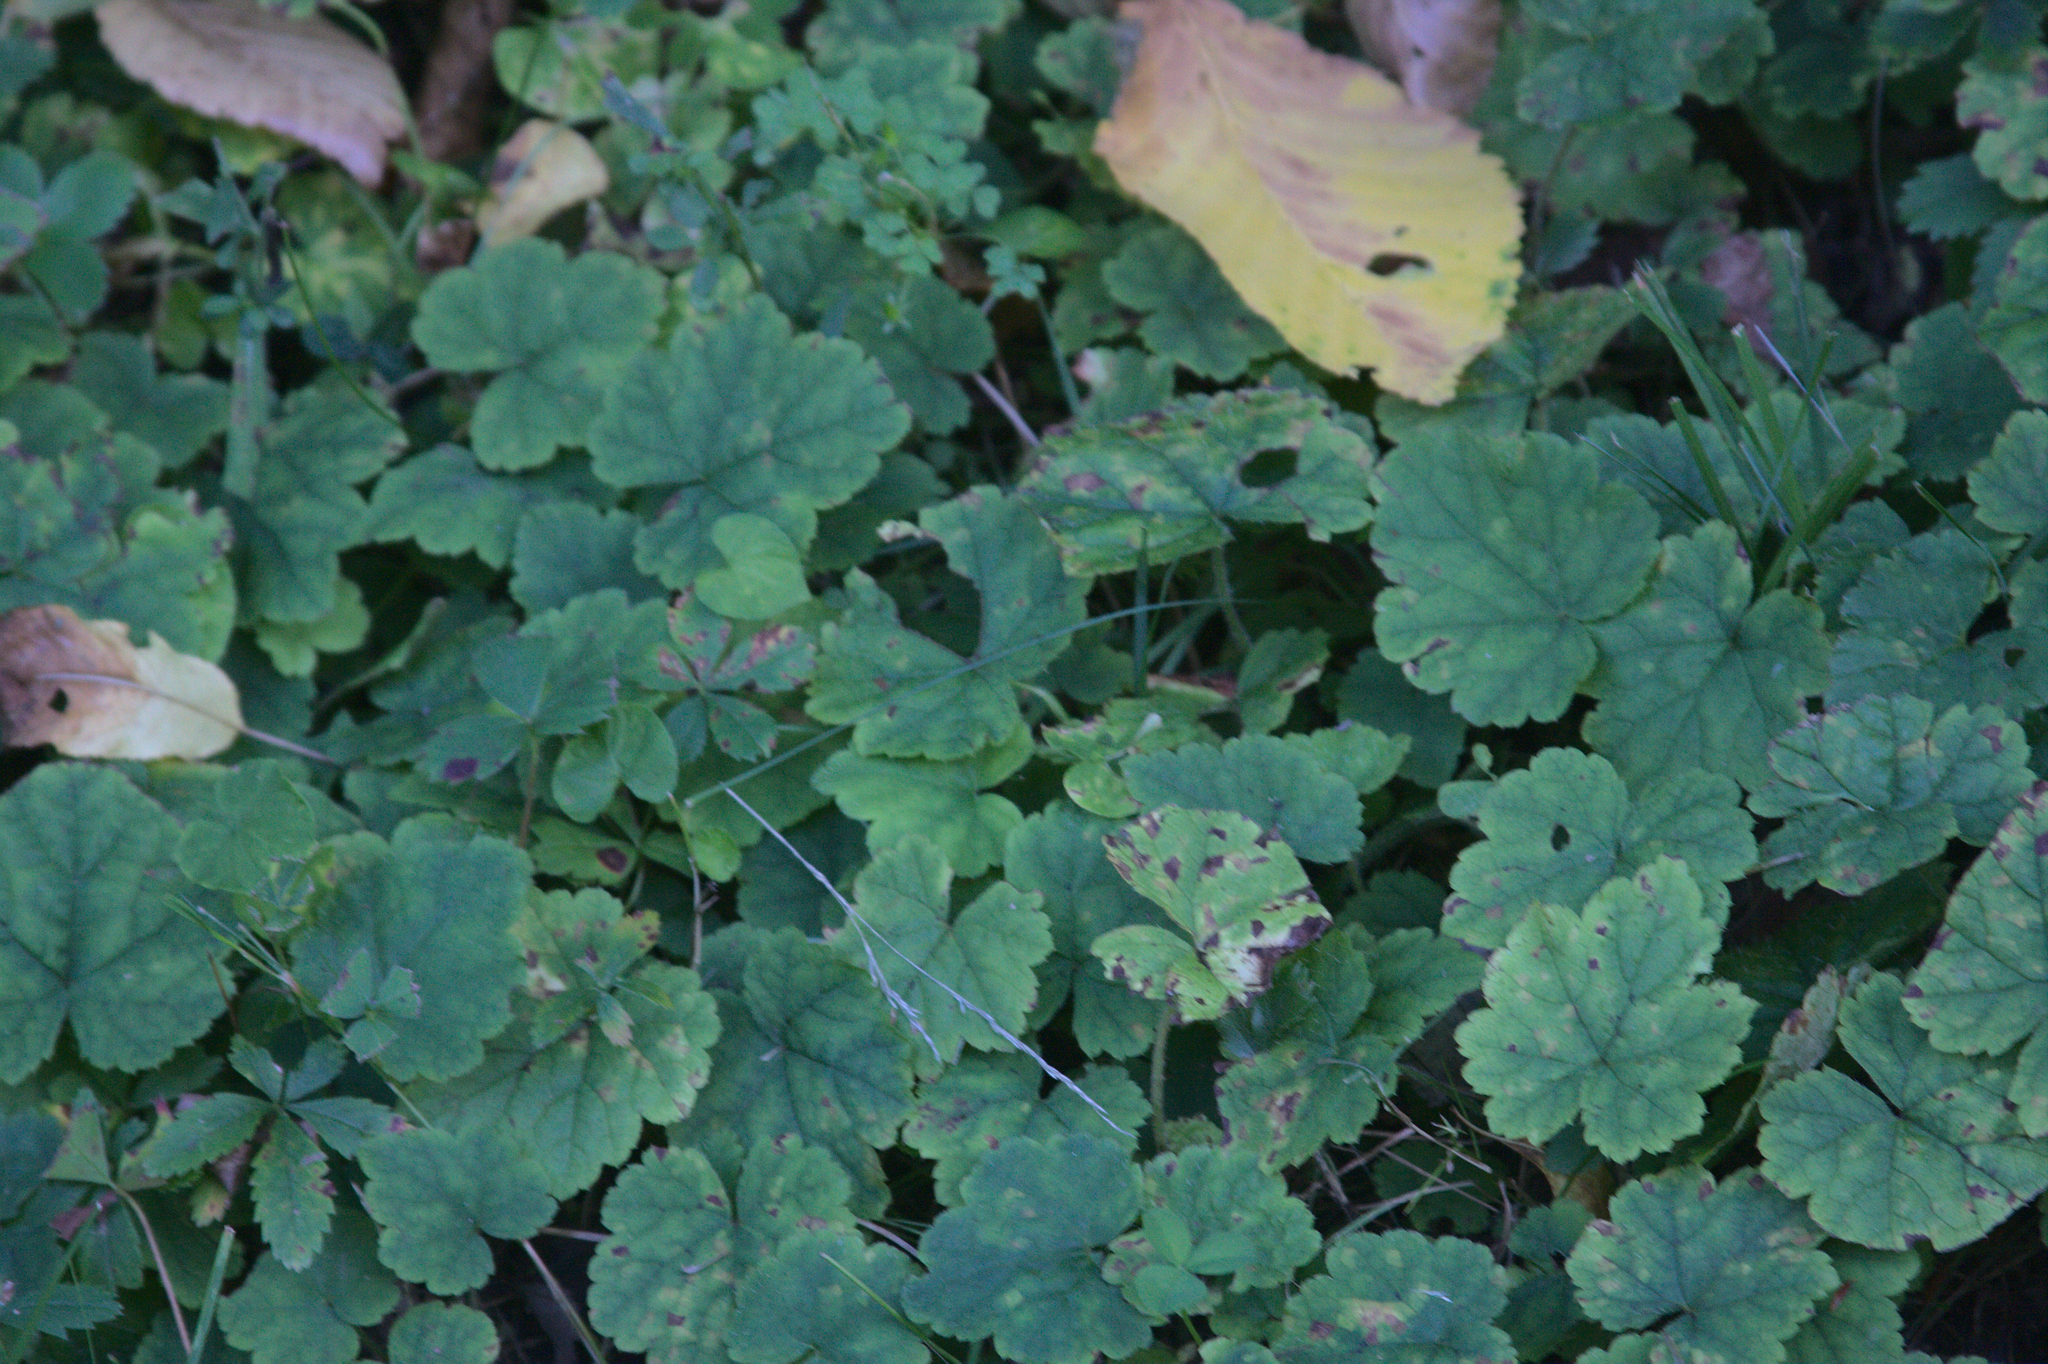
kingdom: Plantae
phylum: Tracheophyta
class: Magnoliopsida
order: Saxifragales
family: Saxifragaceae
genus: Tiarella
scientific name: Tiarella stolonifera
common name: Stoloniferous foamflower
